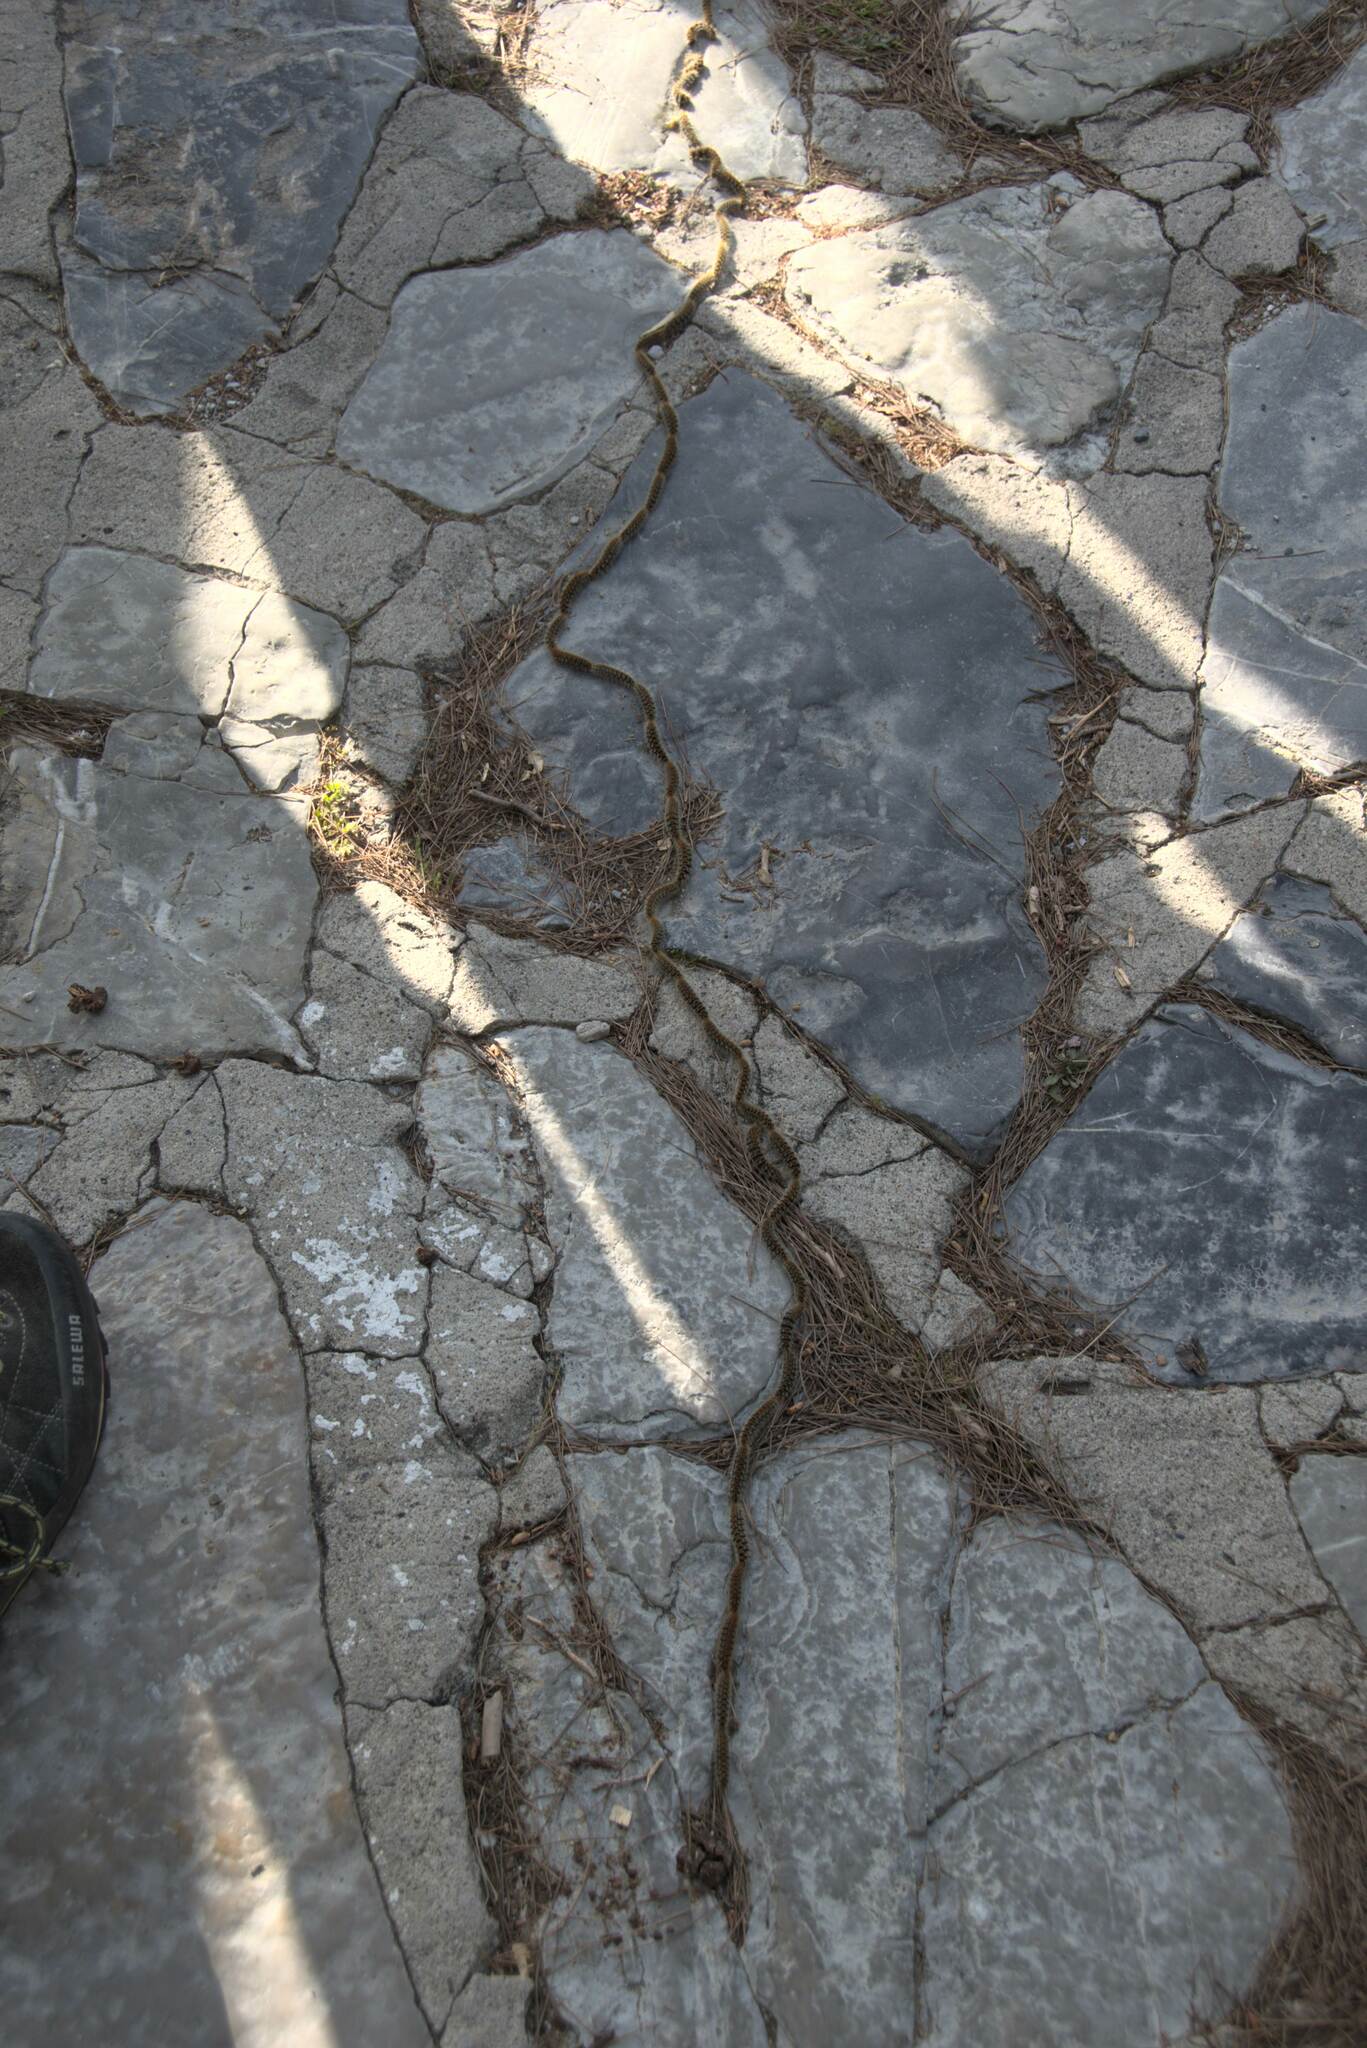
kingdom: Animalia
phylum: Arthropoda
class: Insecta
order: Lepidoptera
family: Notodontidae
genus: Thaumetopoea
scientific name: Thaumetopoea
